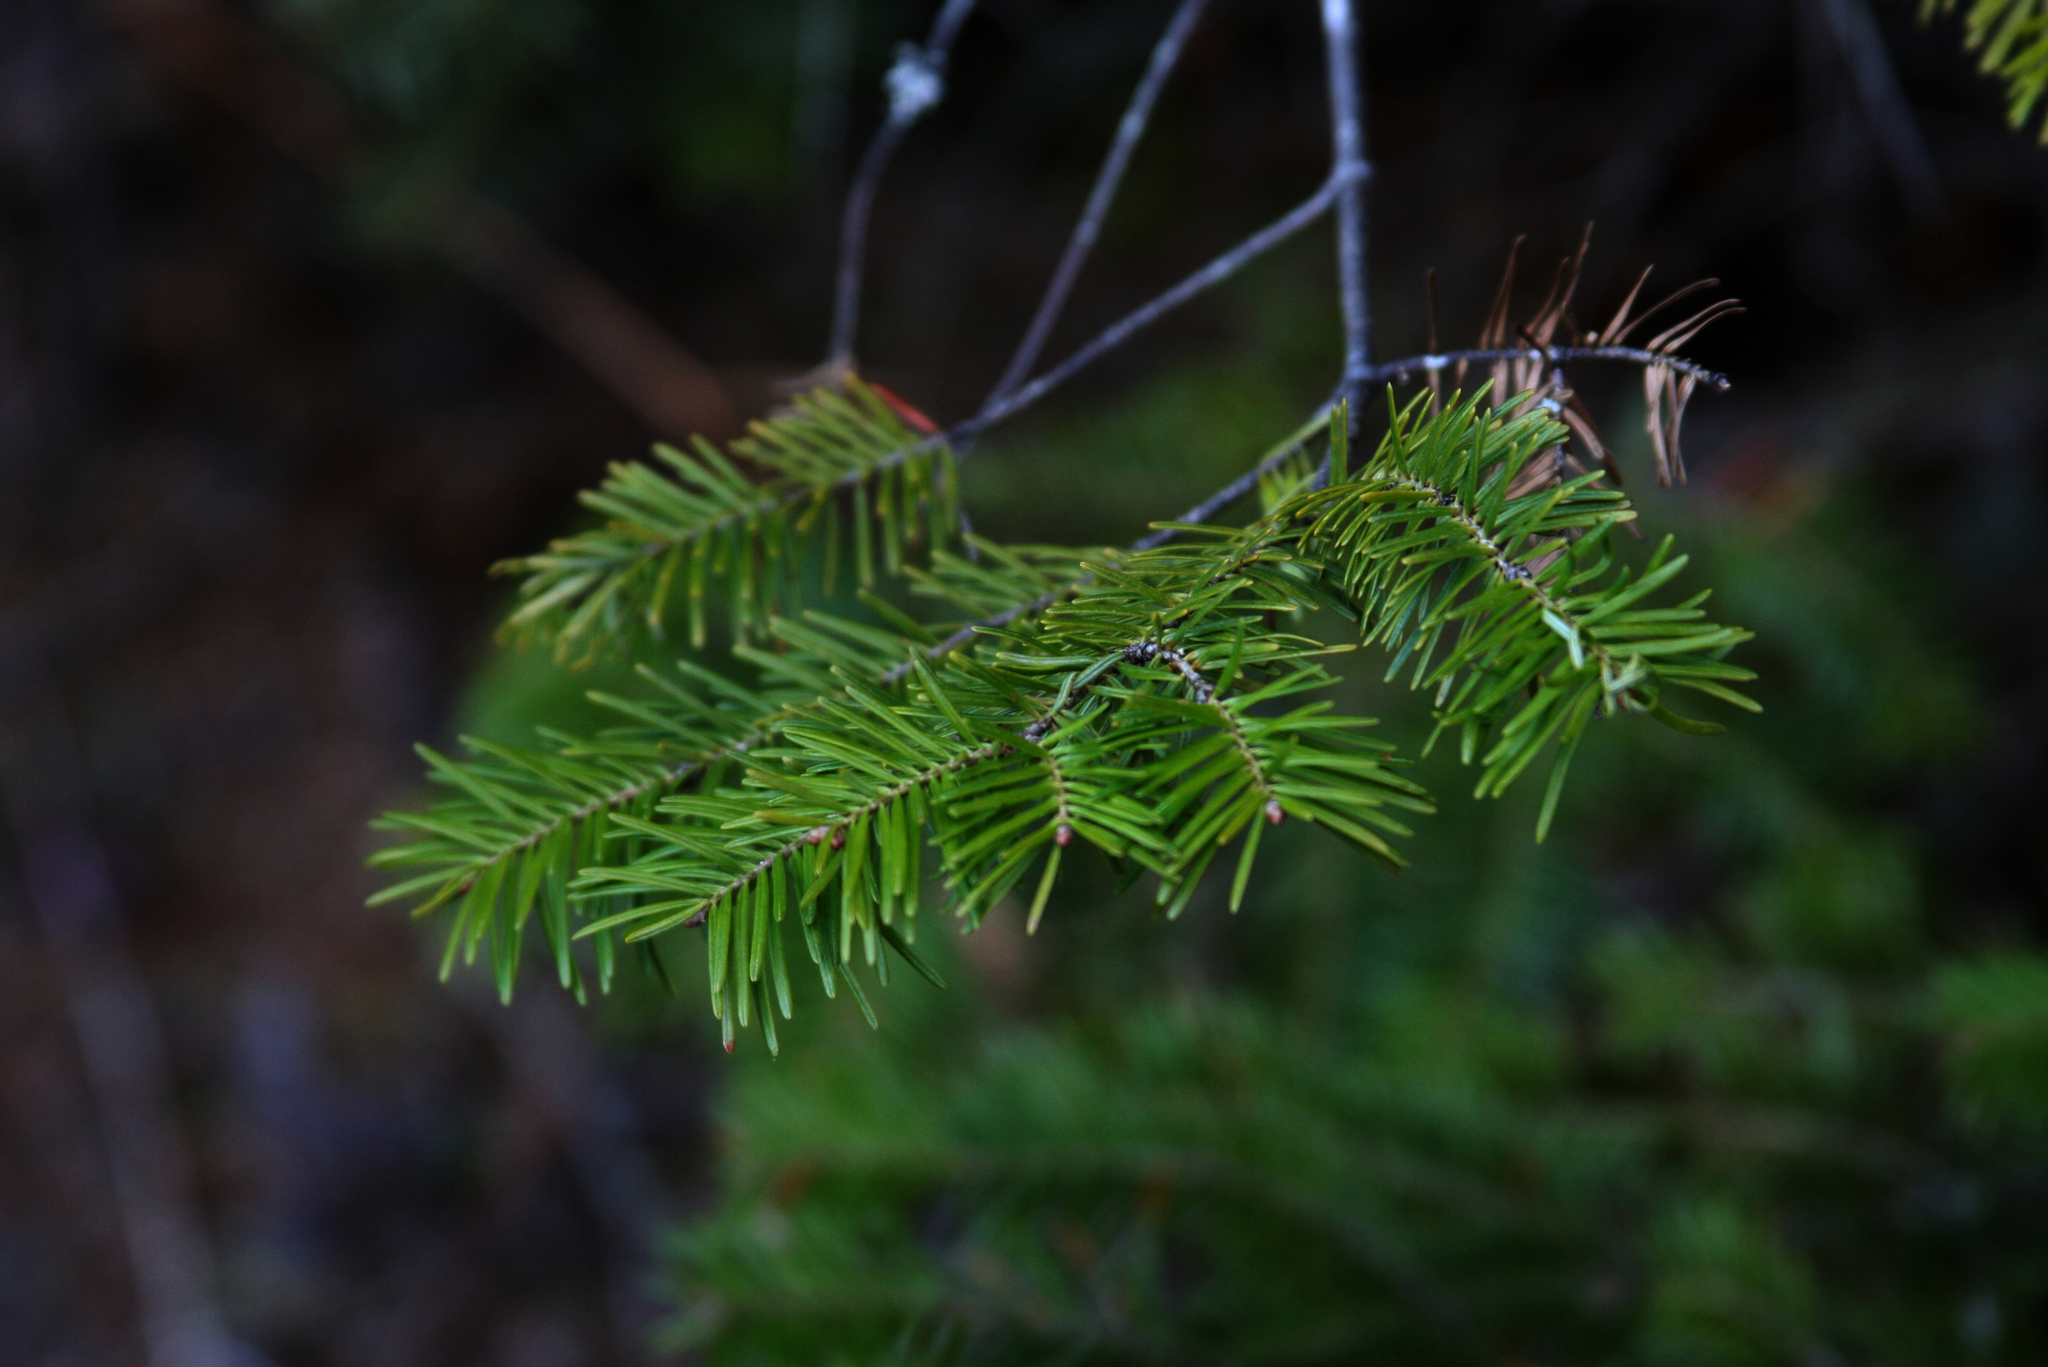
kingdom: Plantae
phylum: Tracheophyta
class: Pinopsida
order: Pinales
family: Pinaceae
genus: Abies
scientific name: Abies balsamea
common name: Balsam fir
